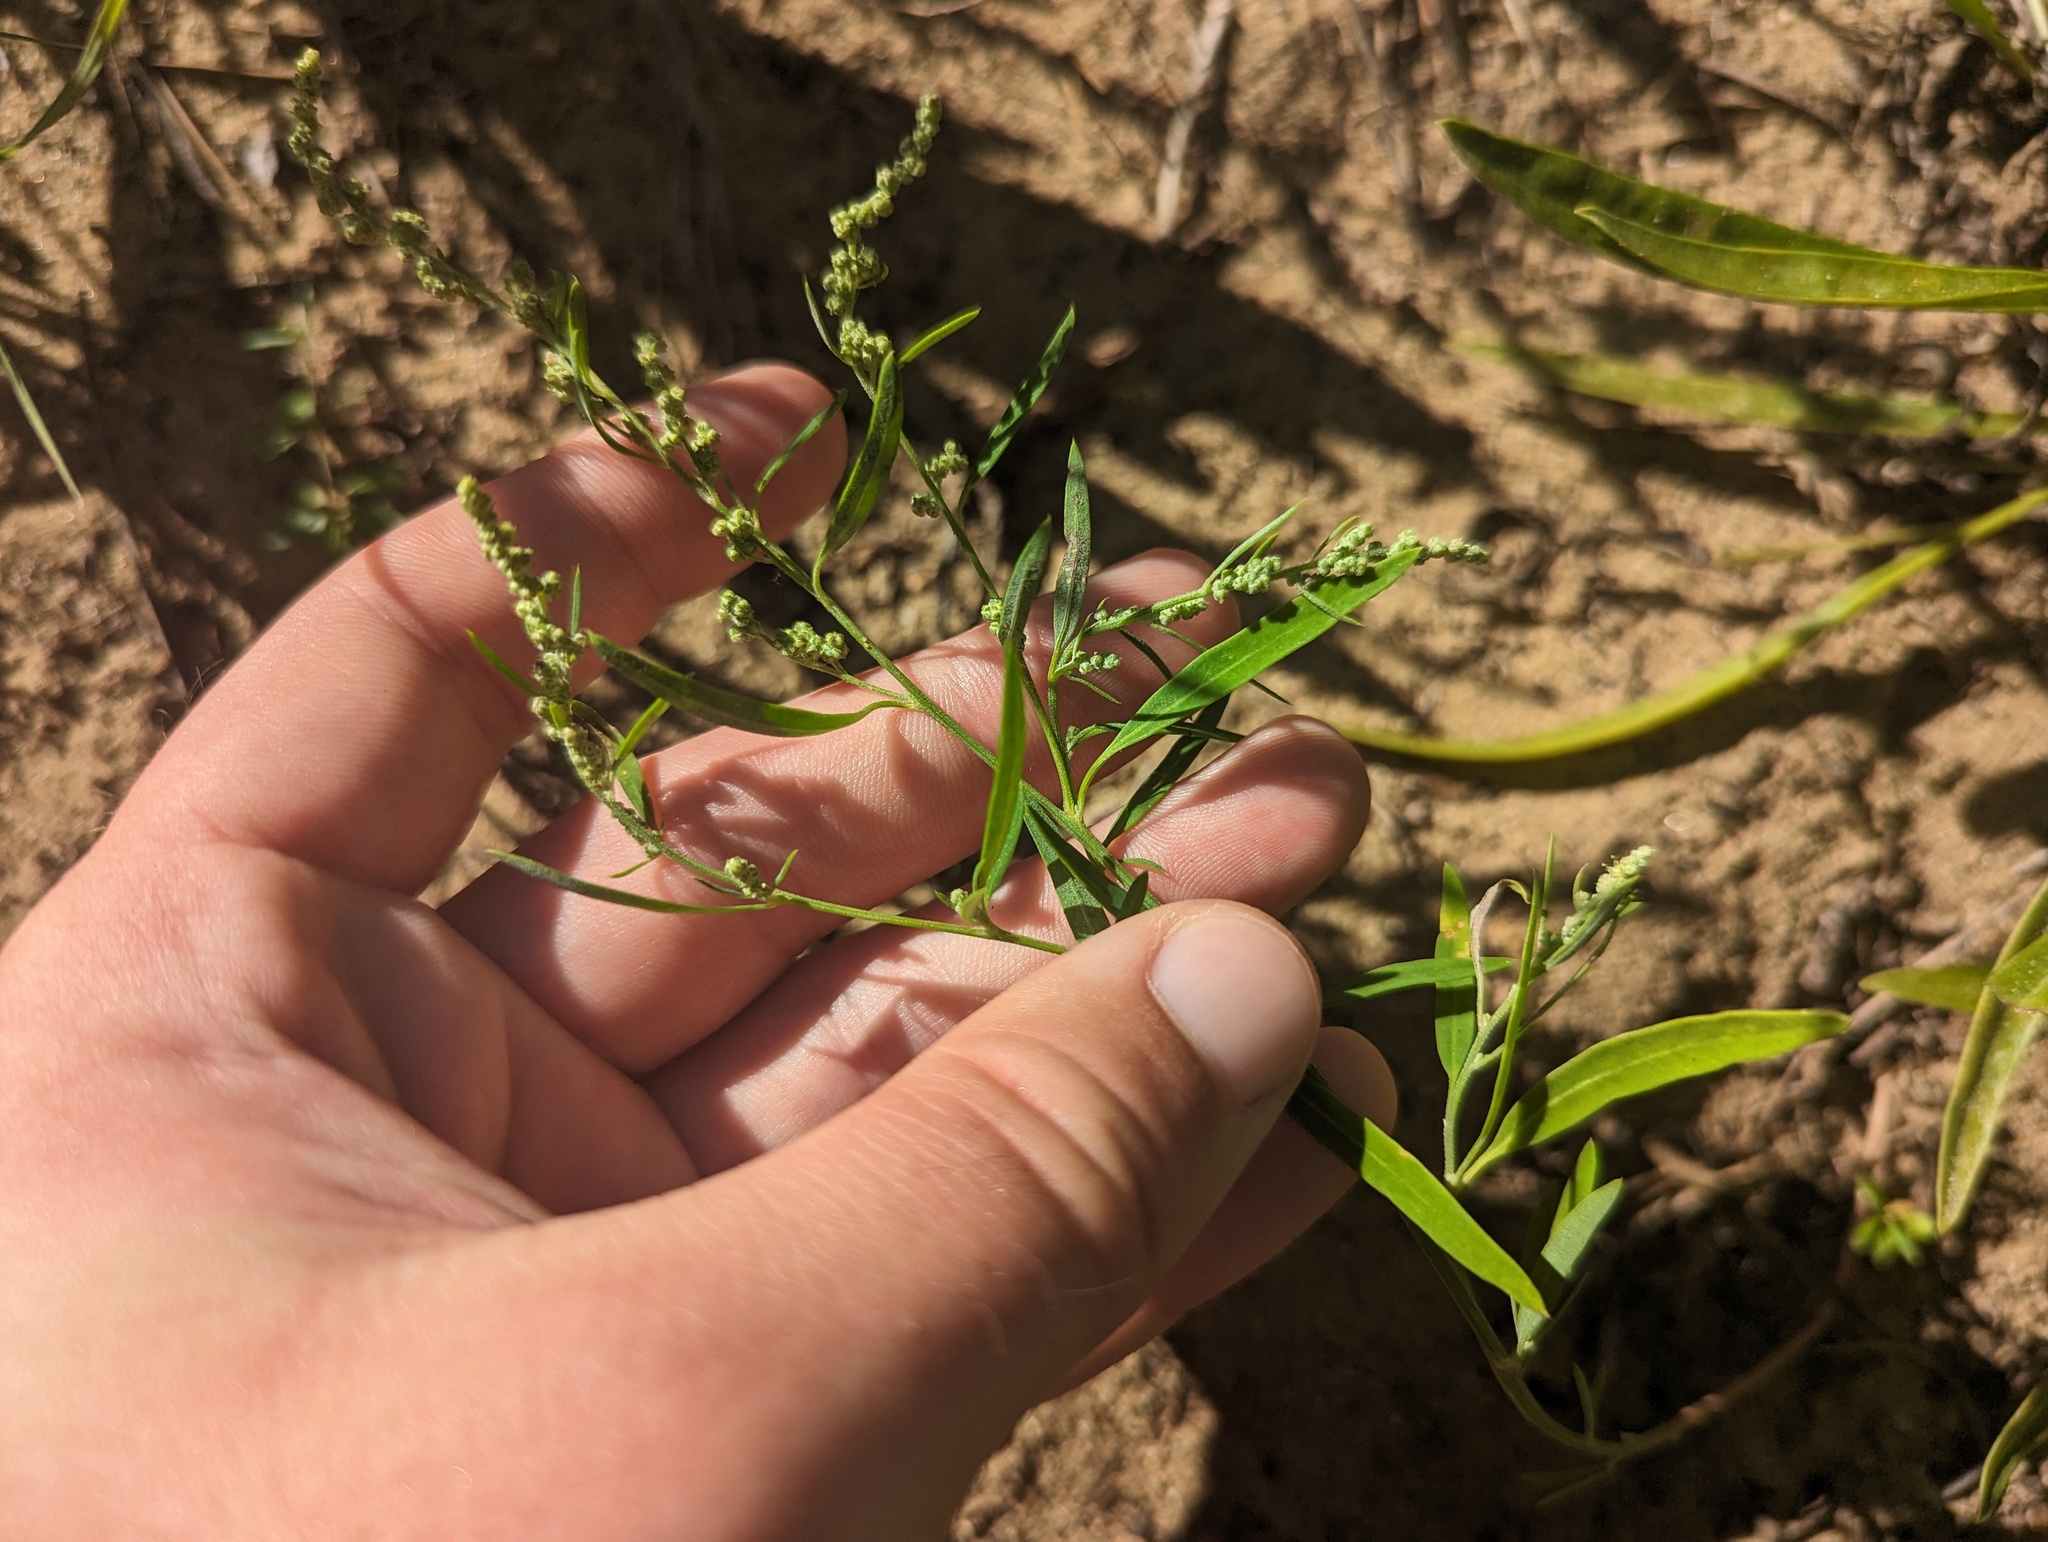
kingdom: Plantae
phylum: Tracheophyta
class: Magnoliopsida
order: Caryophyllales
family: Amaranthaceae
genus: Chenopodium
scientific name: Chenopodium pratericola
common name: Desert goosefoot
